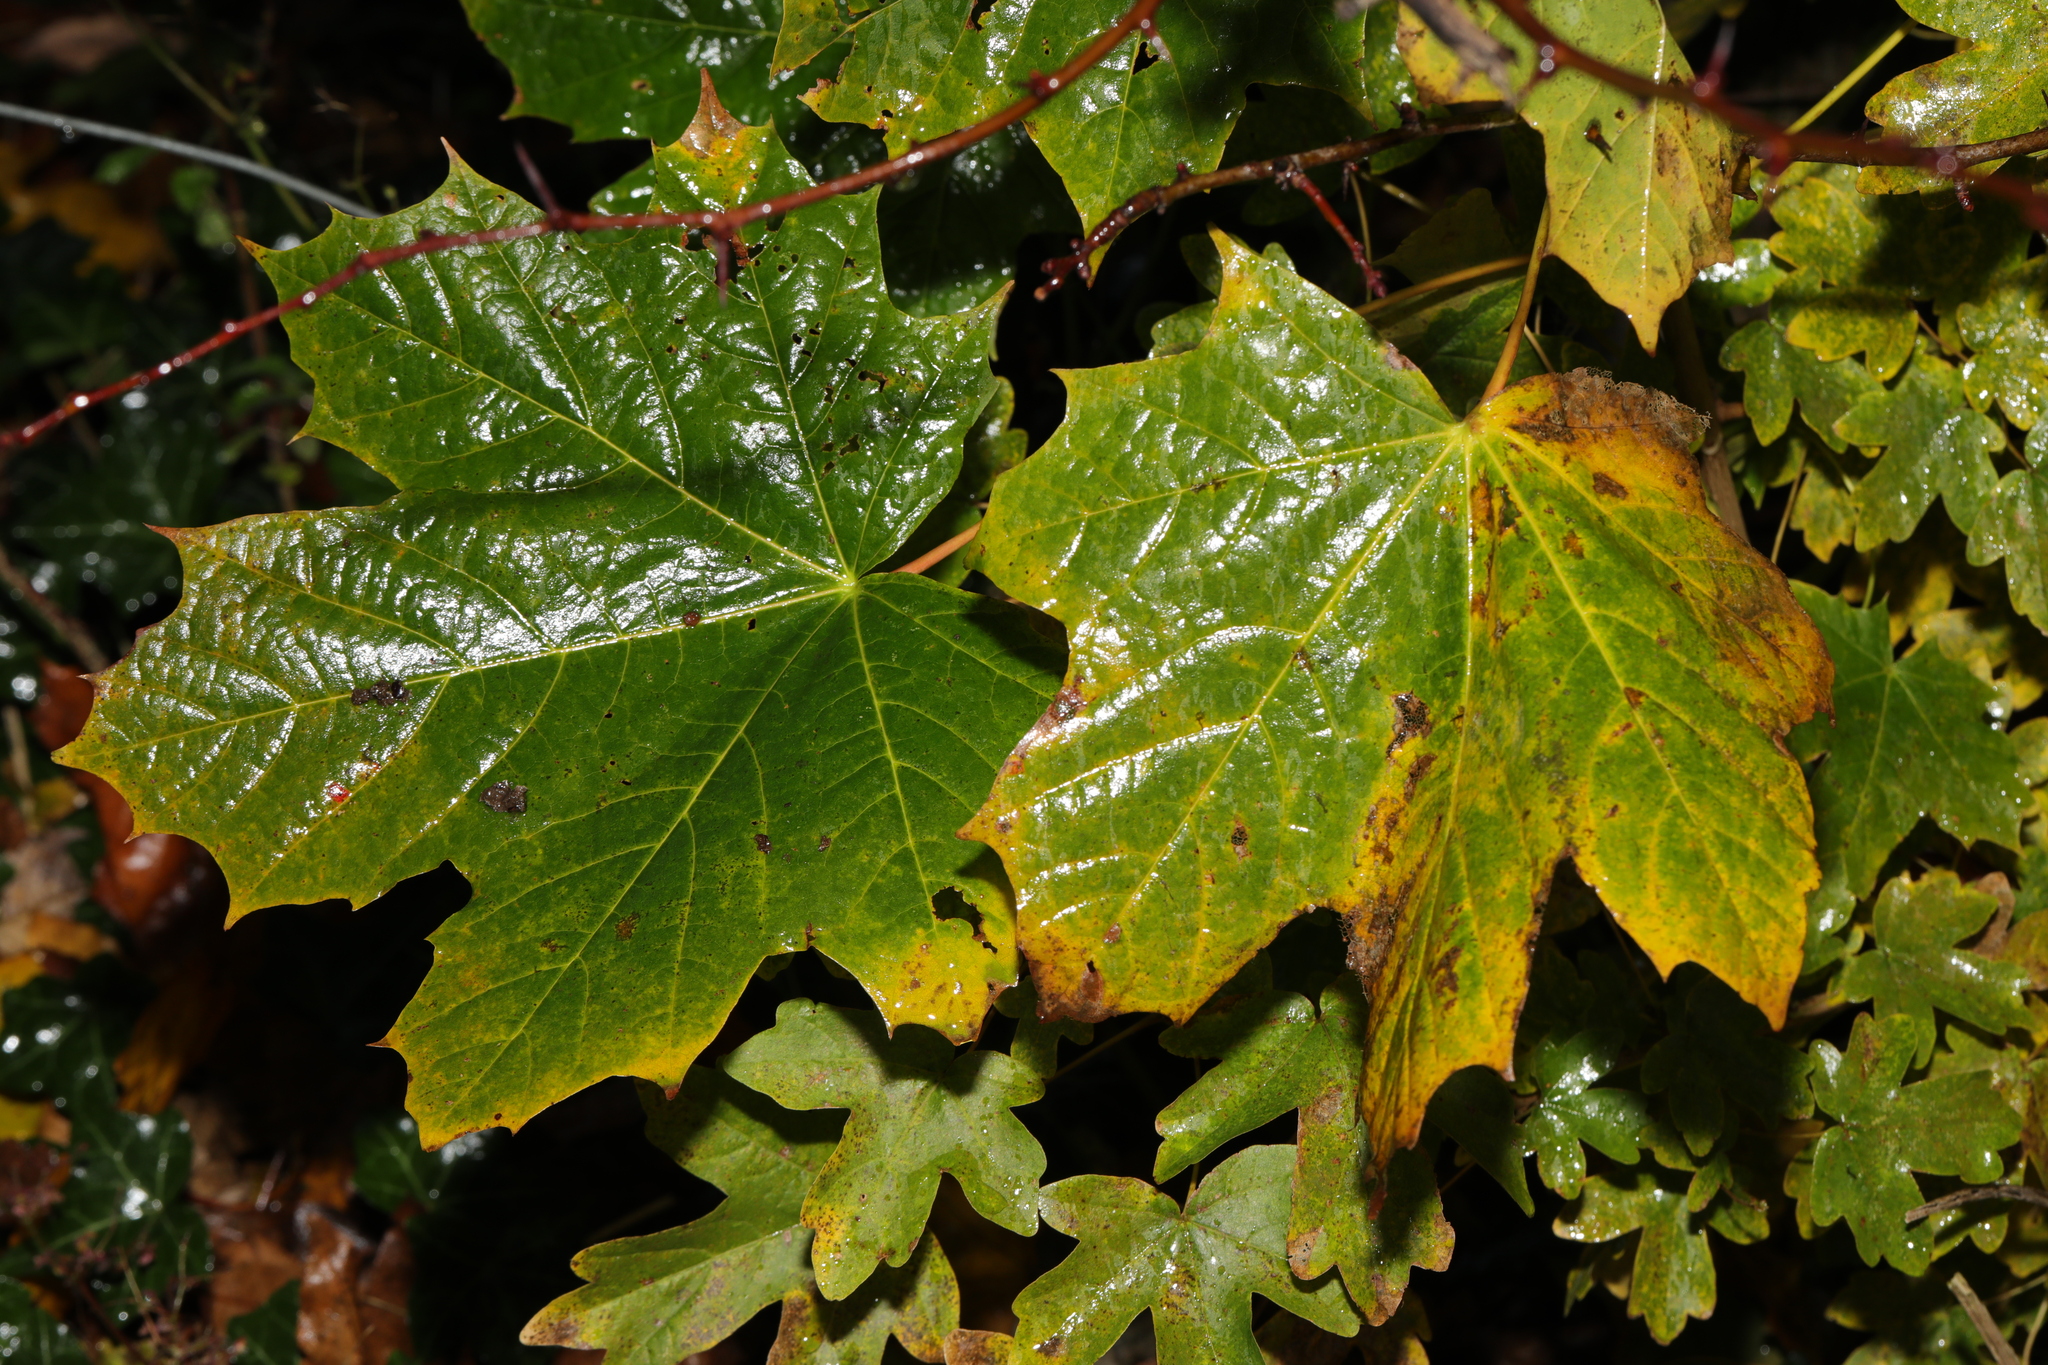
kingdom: Plantae
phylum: Tracheophyta
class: Magnoliopsida
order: Sapindales
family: Sapindaceae
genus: Acer
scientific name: Acer platanoides
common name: Norway maple
